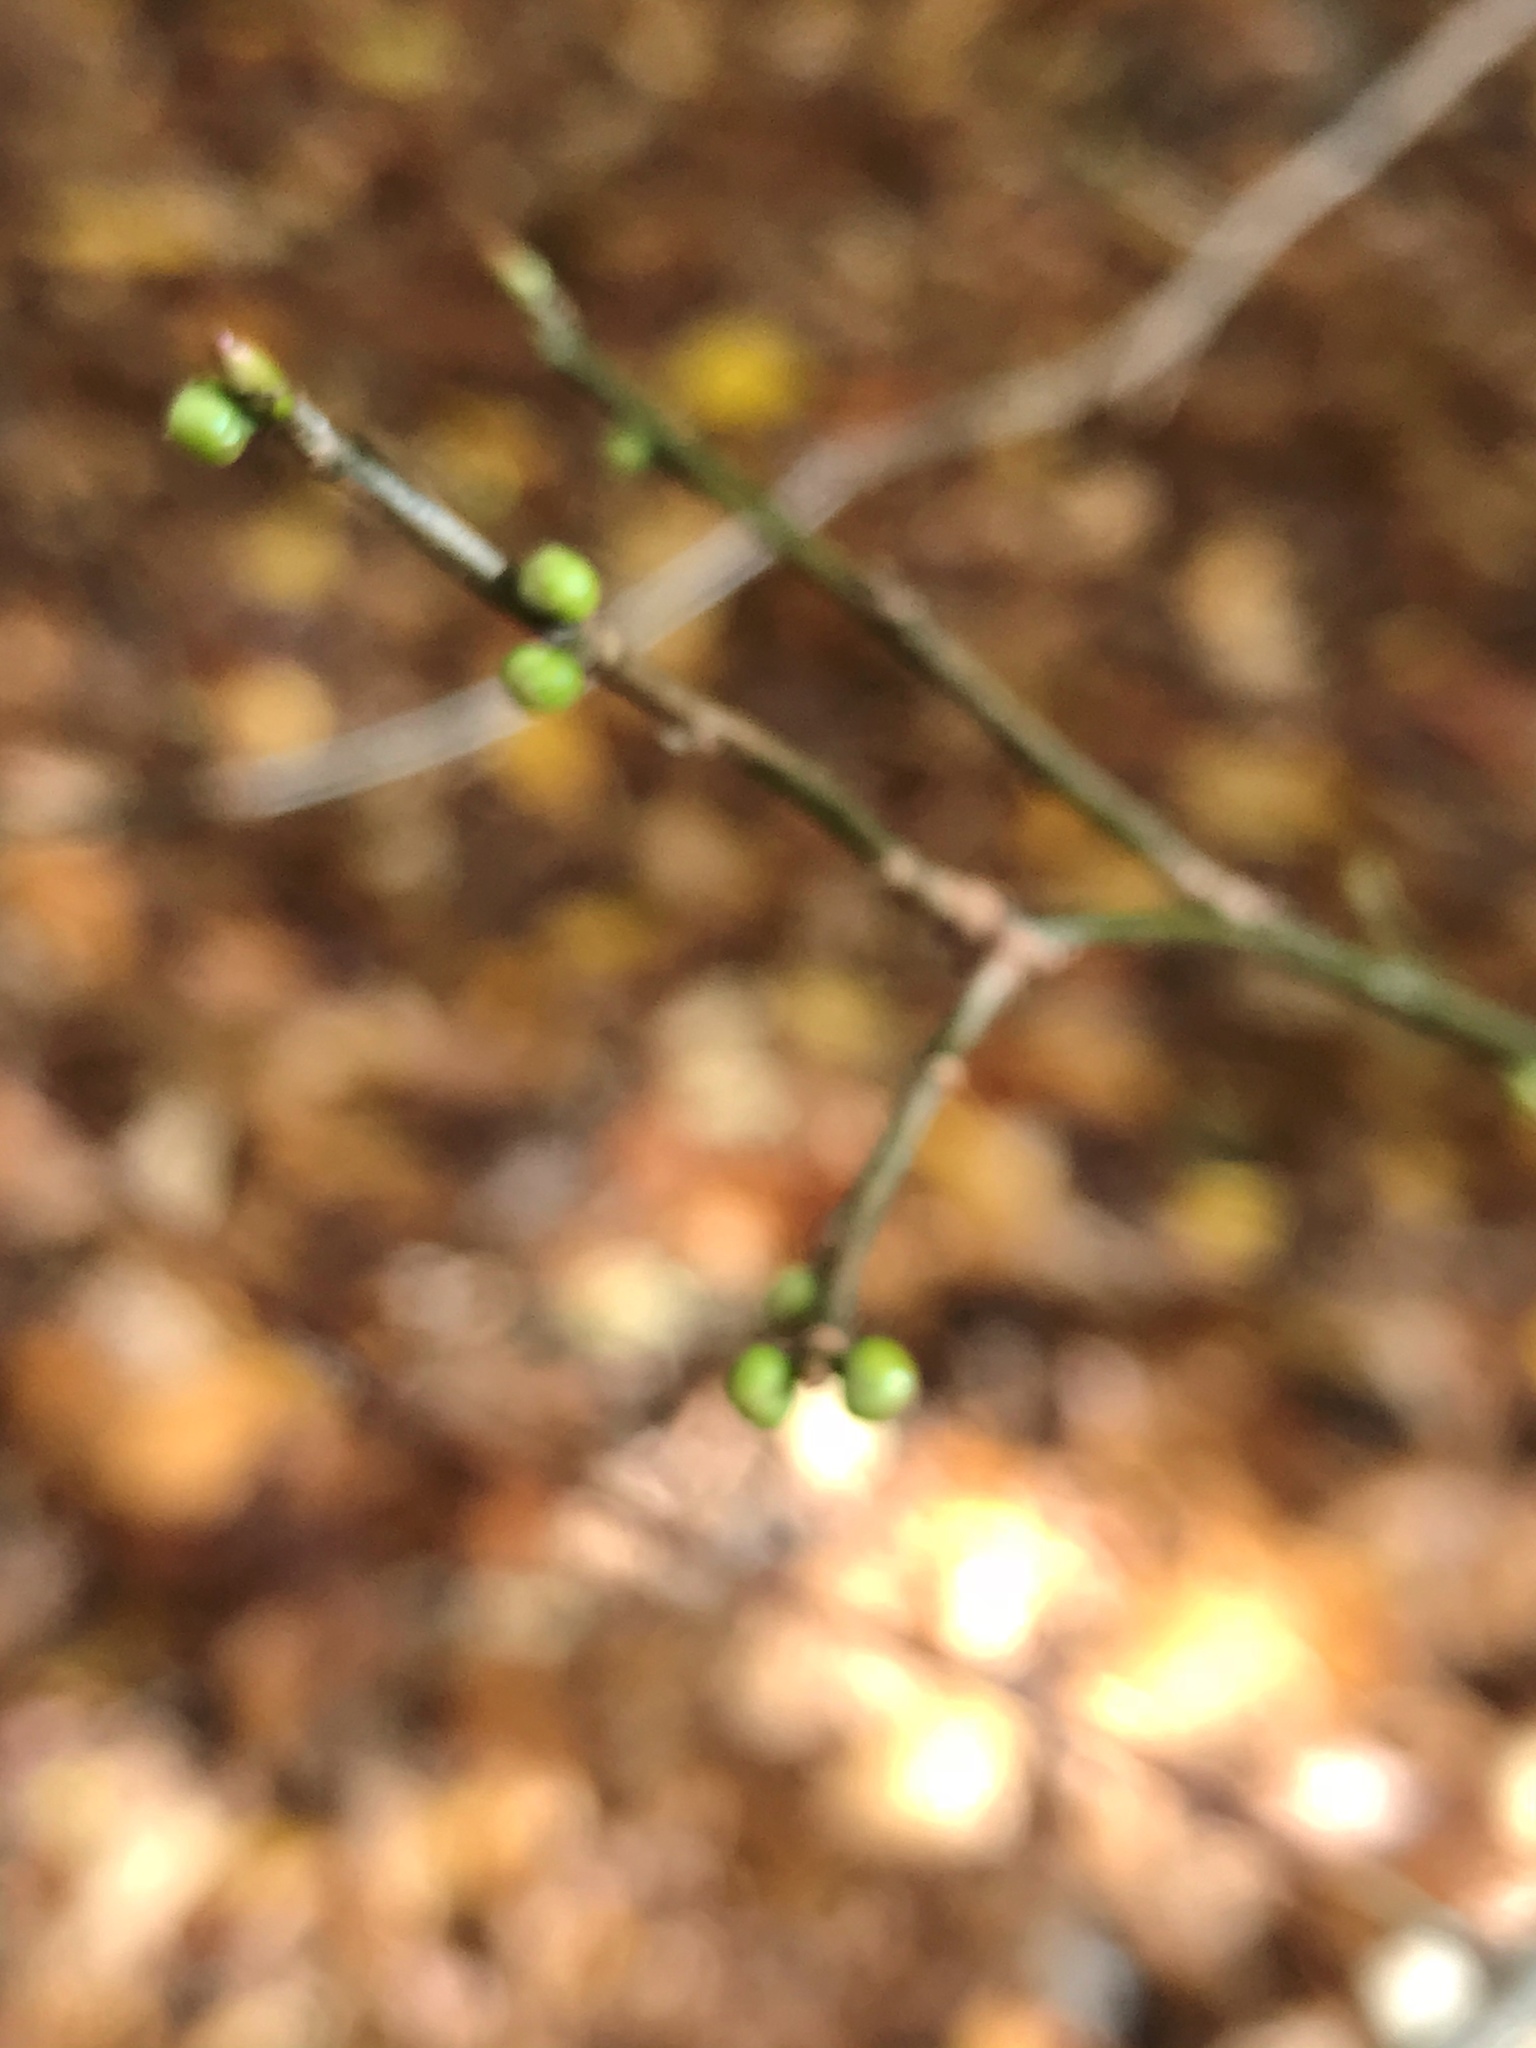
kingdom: Plantae
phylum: Tracheophyta
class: Magnoliopsida
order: Laurales
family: Lauraceae
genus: Lindera
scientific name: Lindera benzoin
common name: Spicebush
